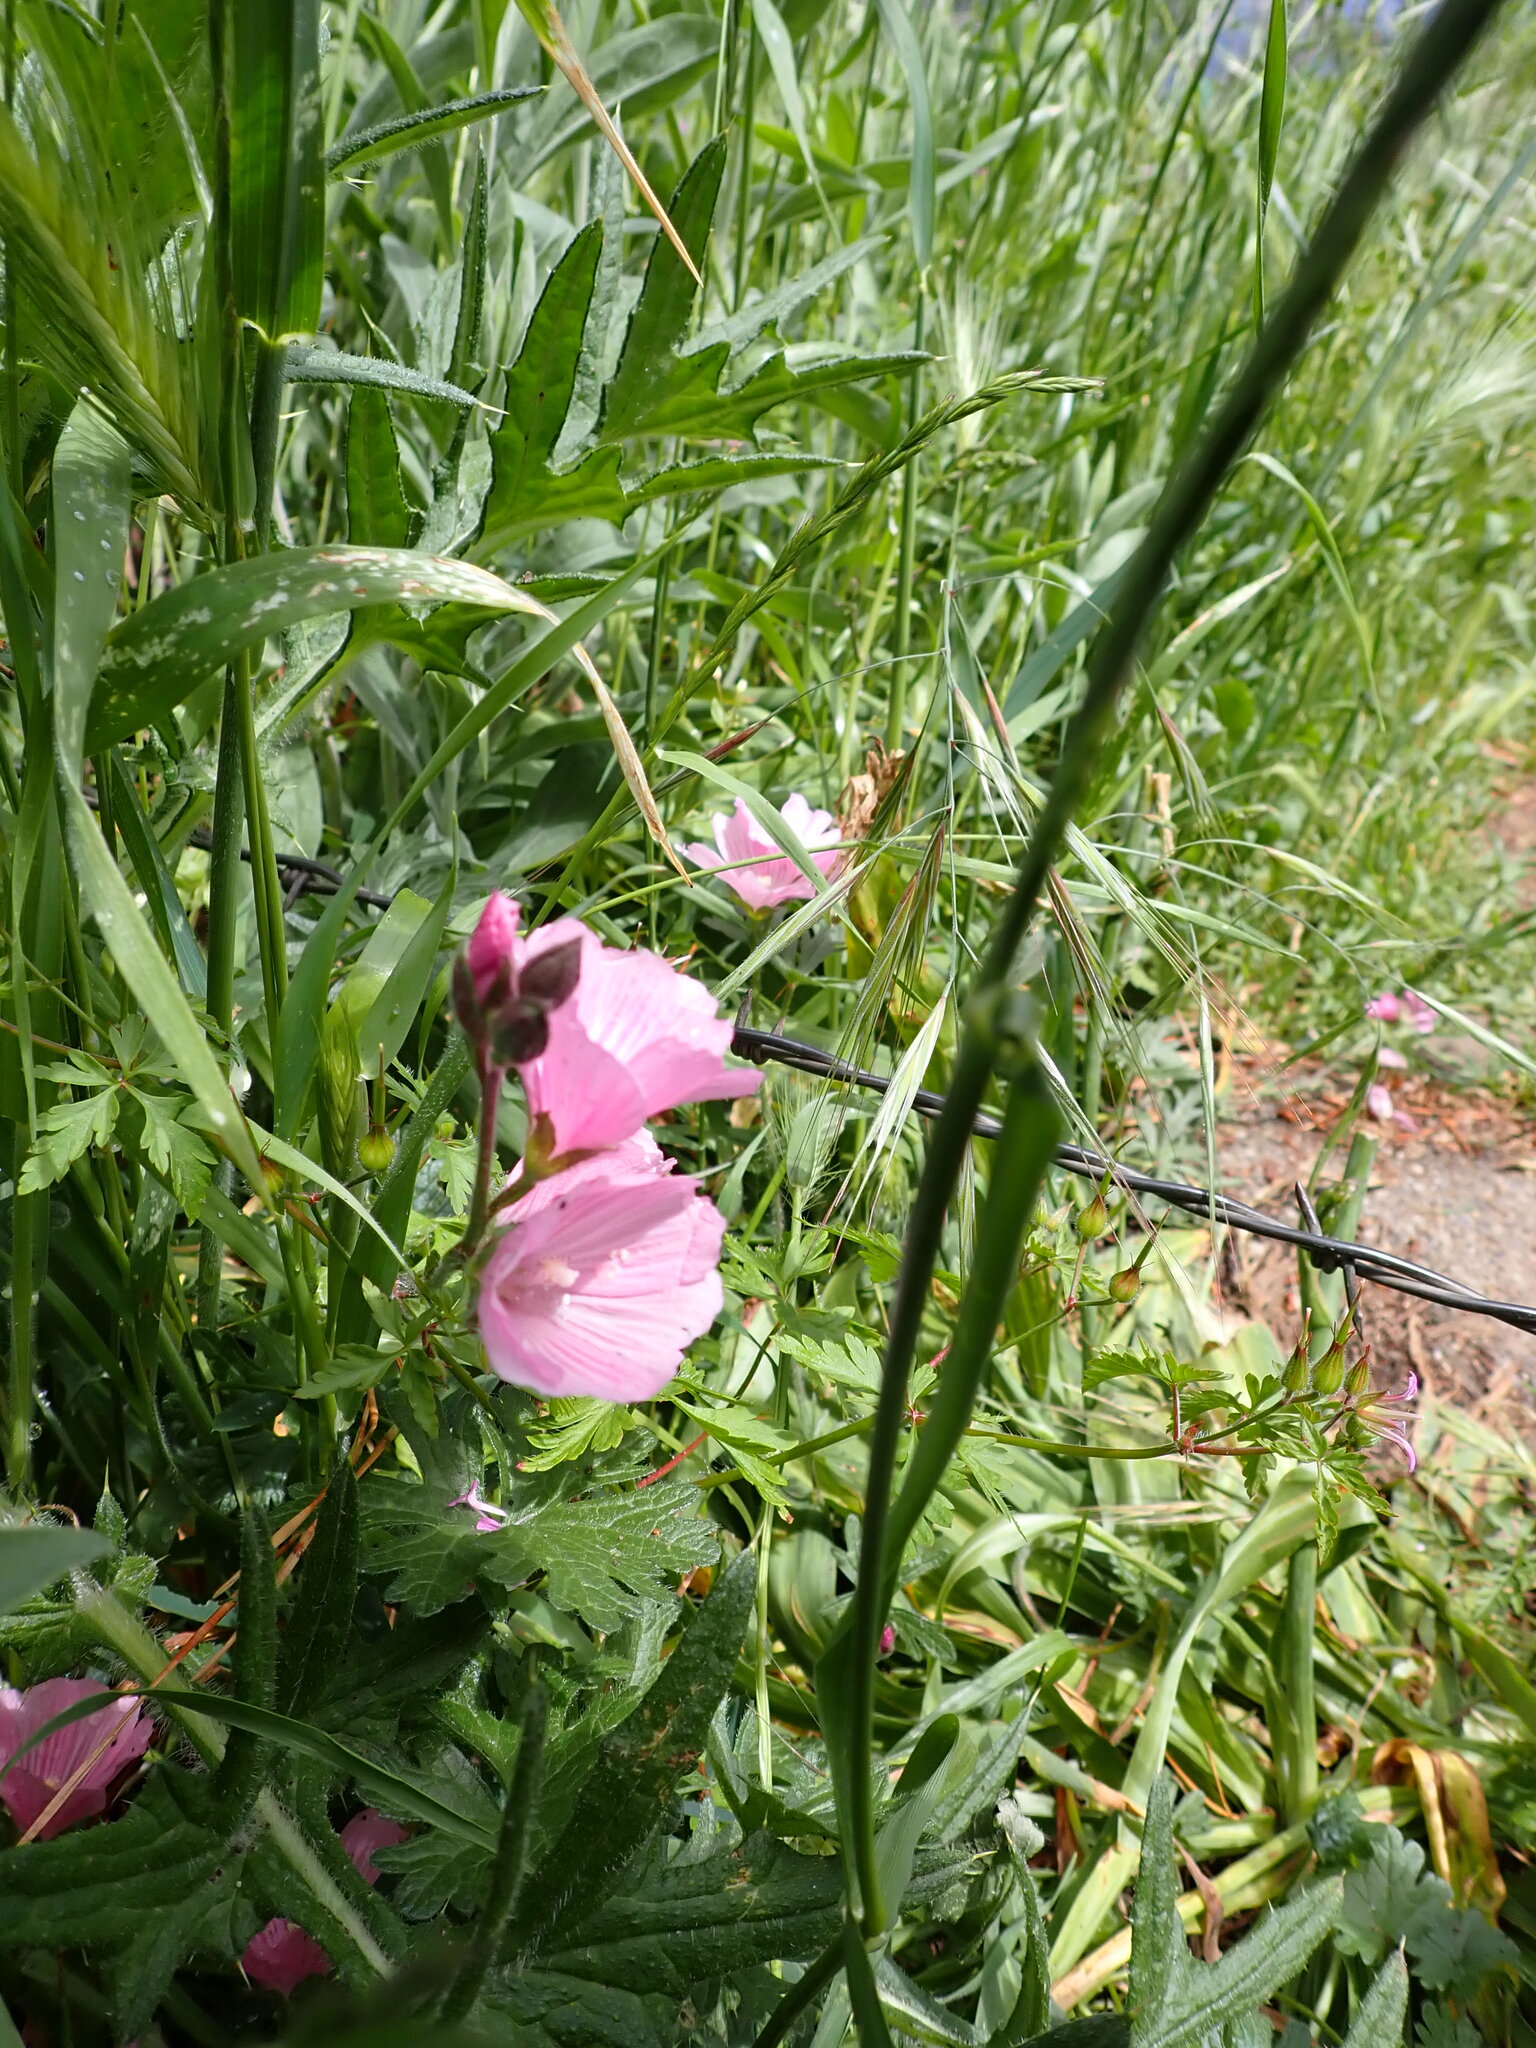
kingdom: Plantae
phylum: Tracheophyta
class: Magnoliopsida
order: Malvales
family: Malvaceae
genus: Sidalcea
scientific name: Sidalcea malviflora
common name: Greek mallow
